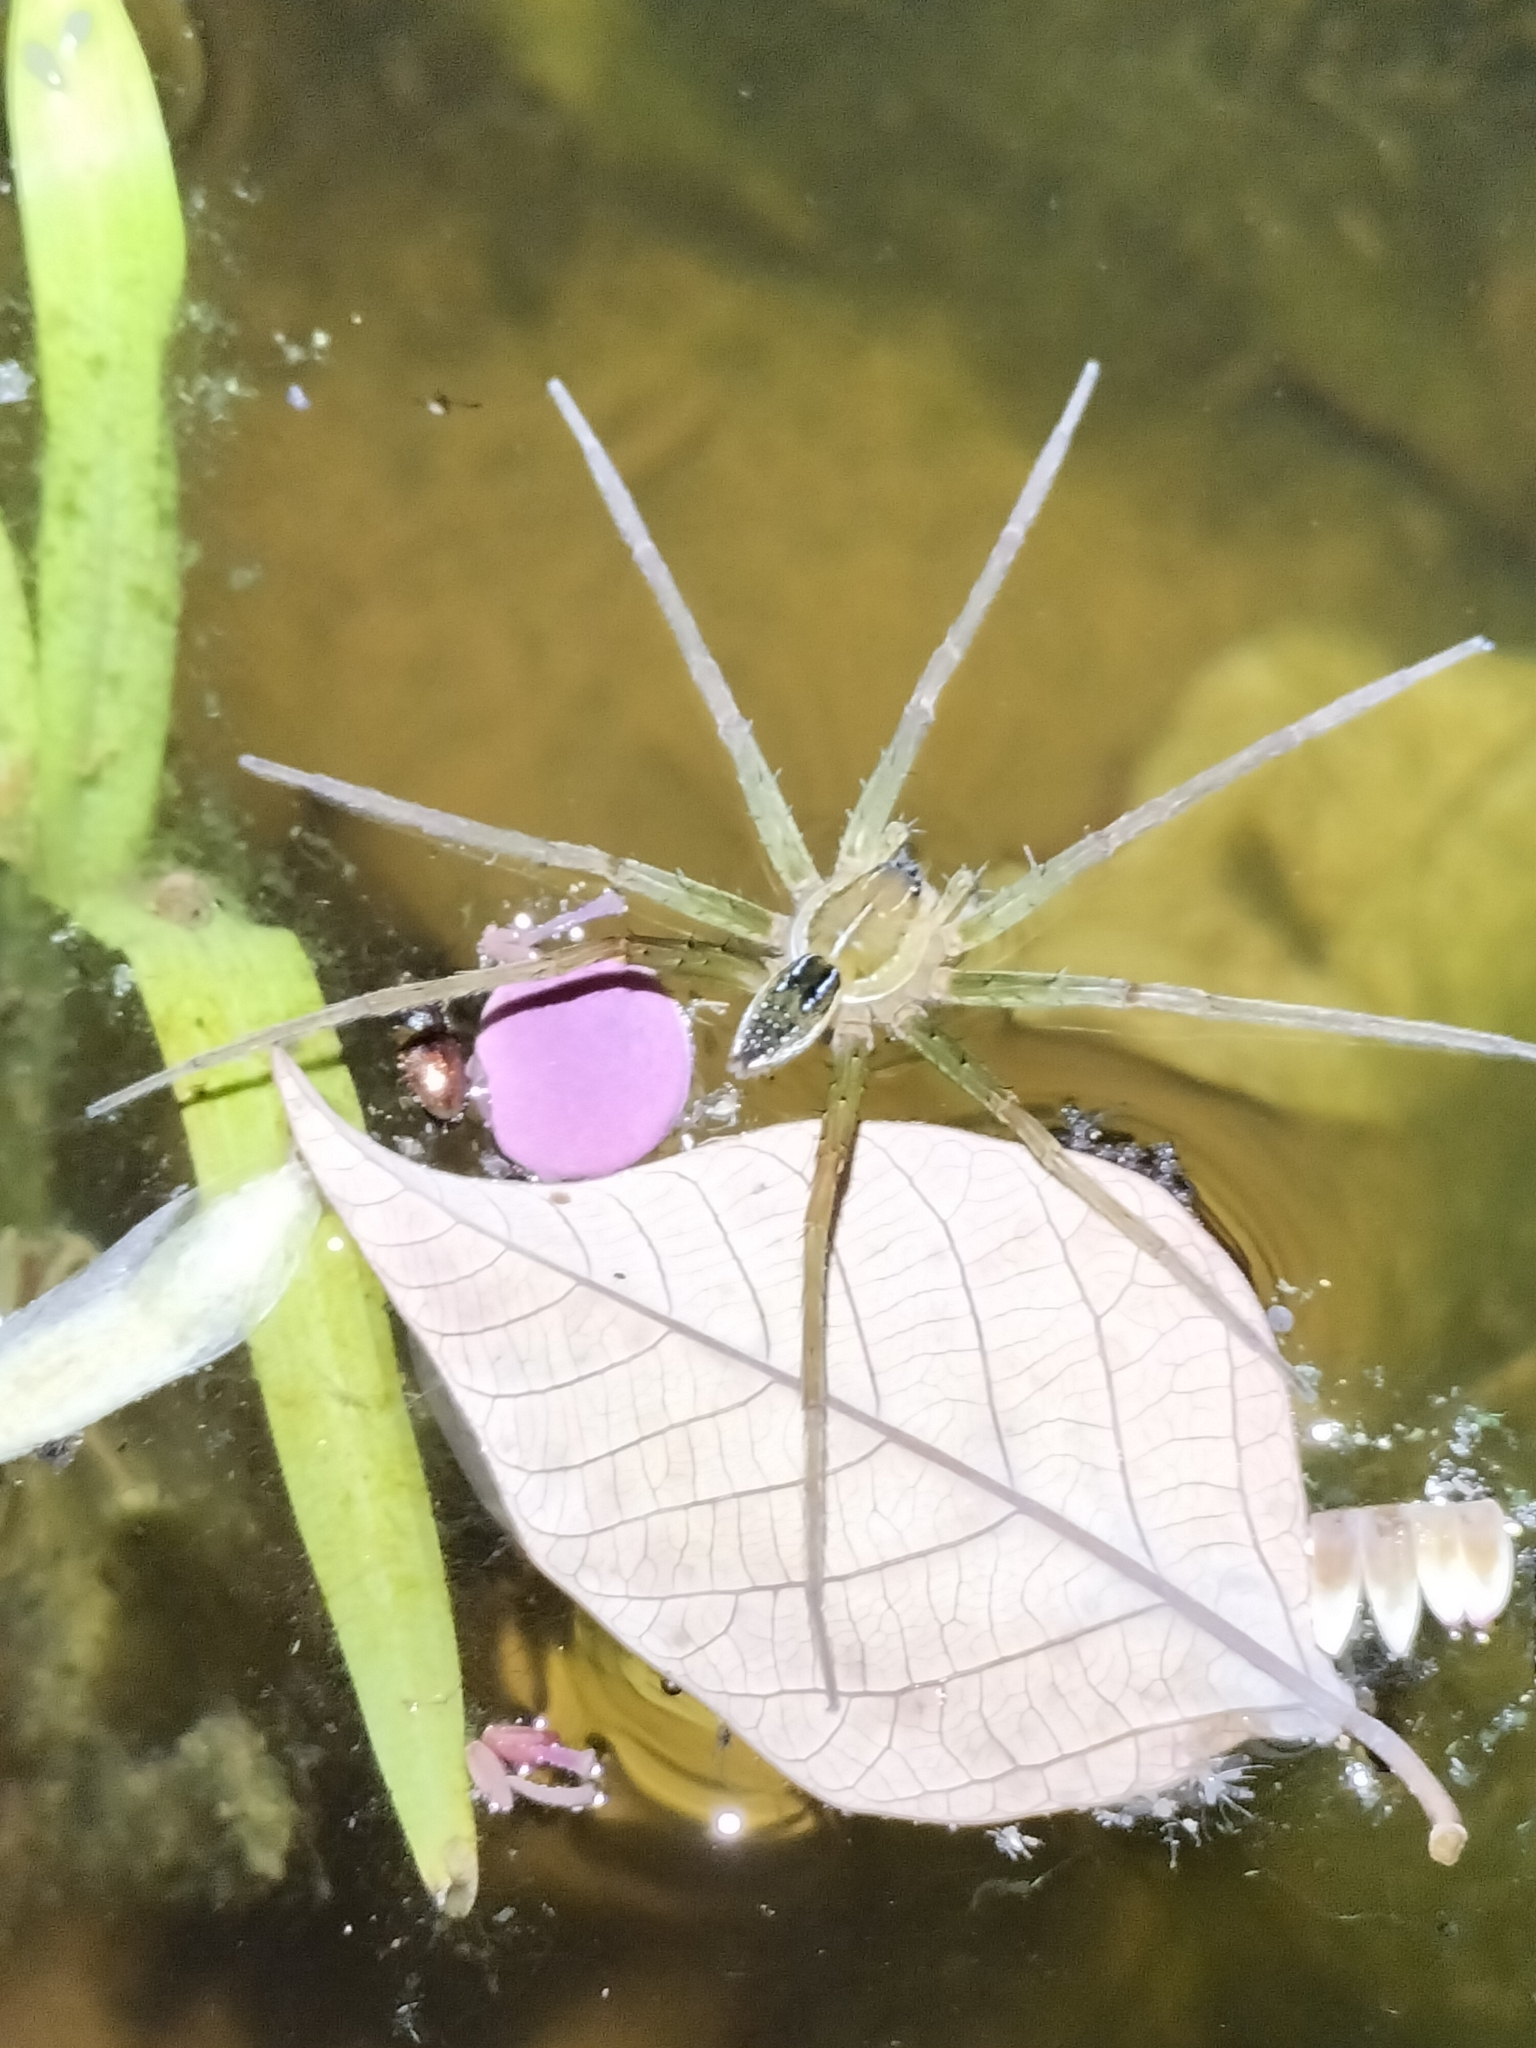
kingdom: Animalia
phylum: Arthropoda
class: Arachnida
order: Araneae
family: Pisauridae
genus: Dolomedes
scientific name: Dolomedes facetus
